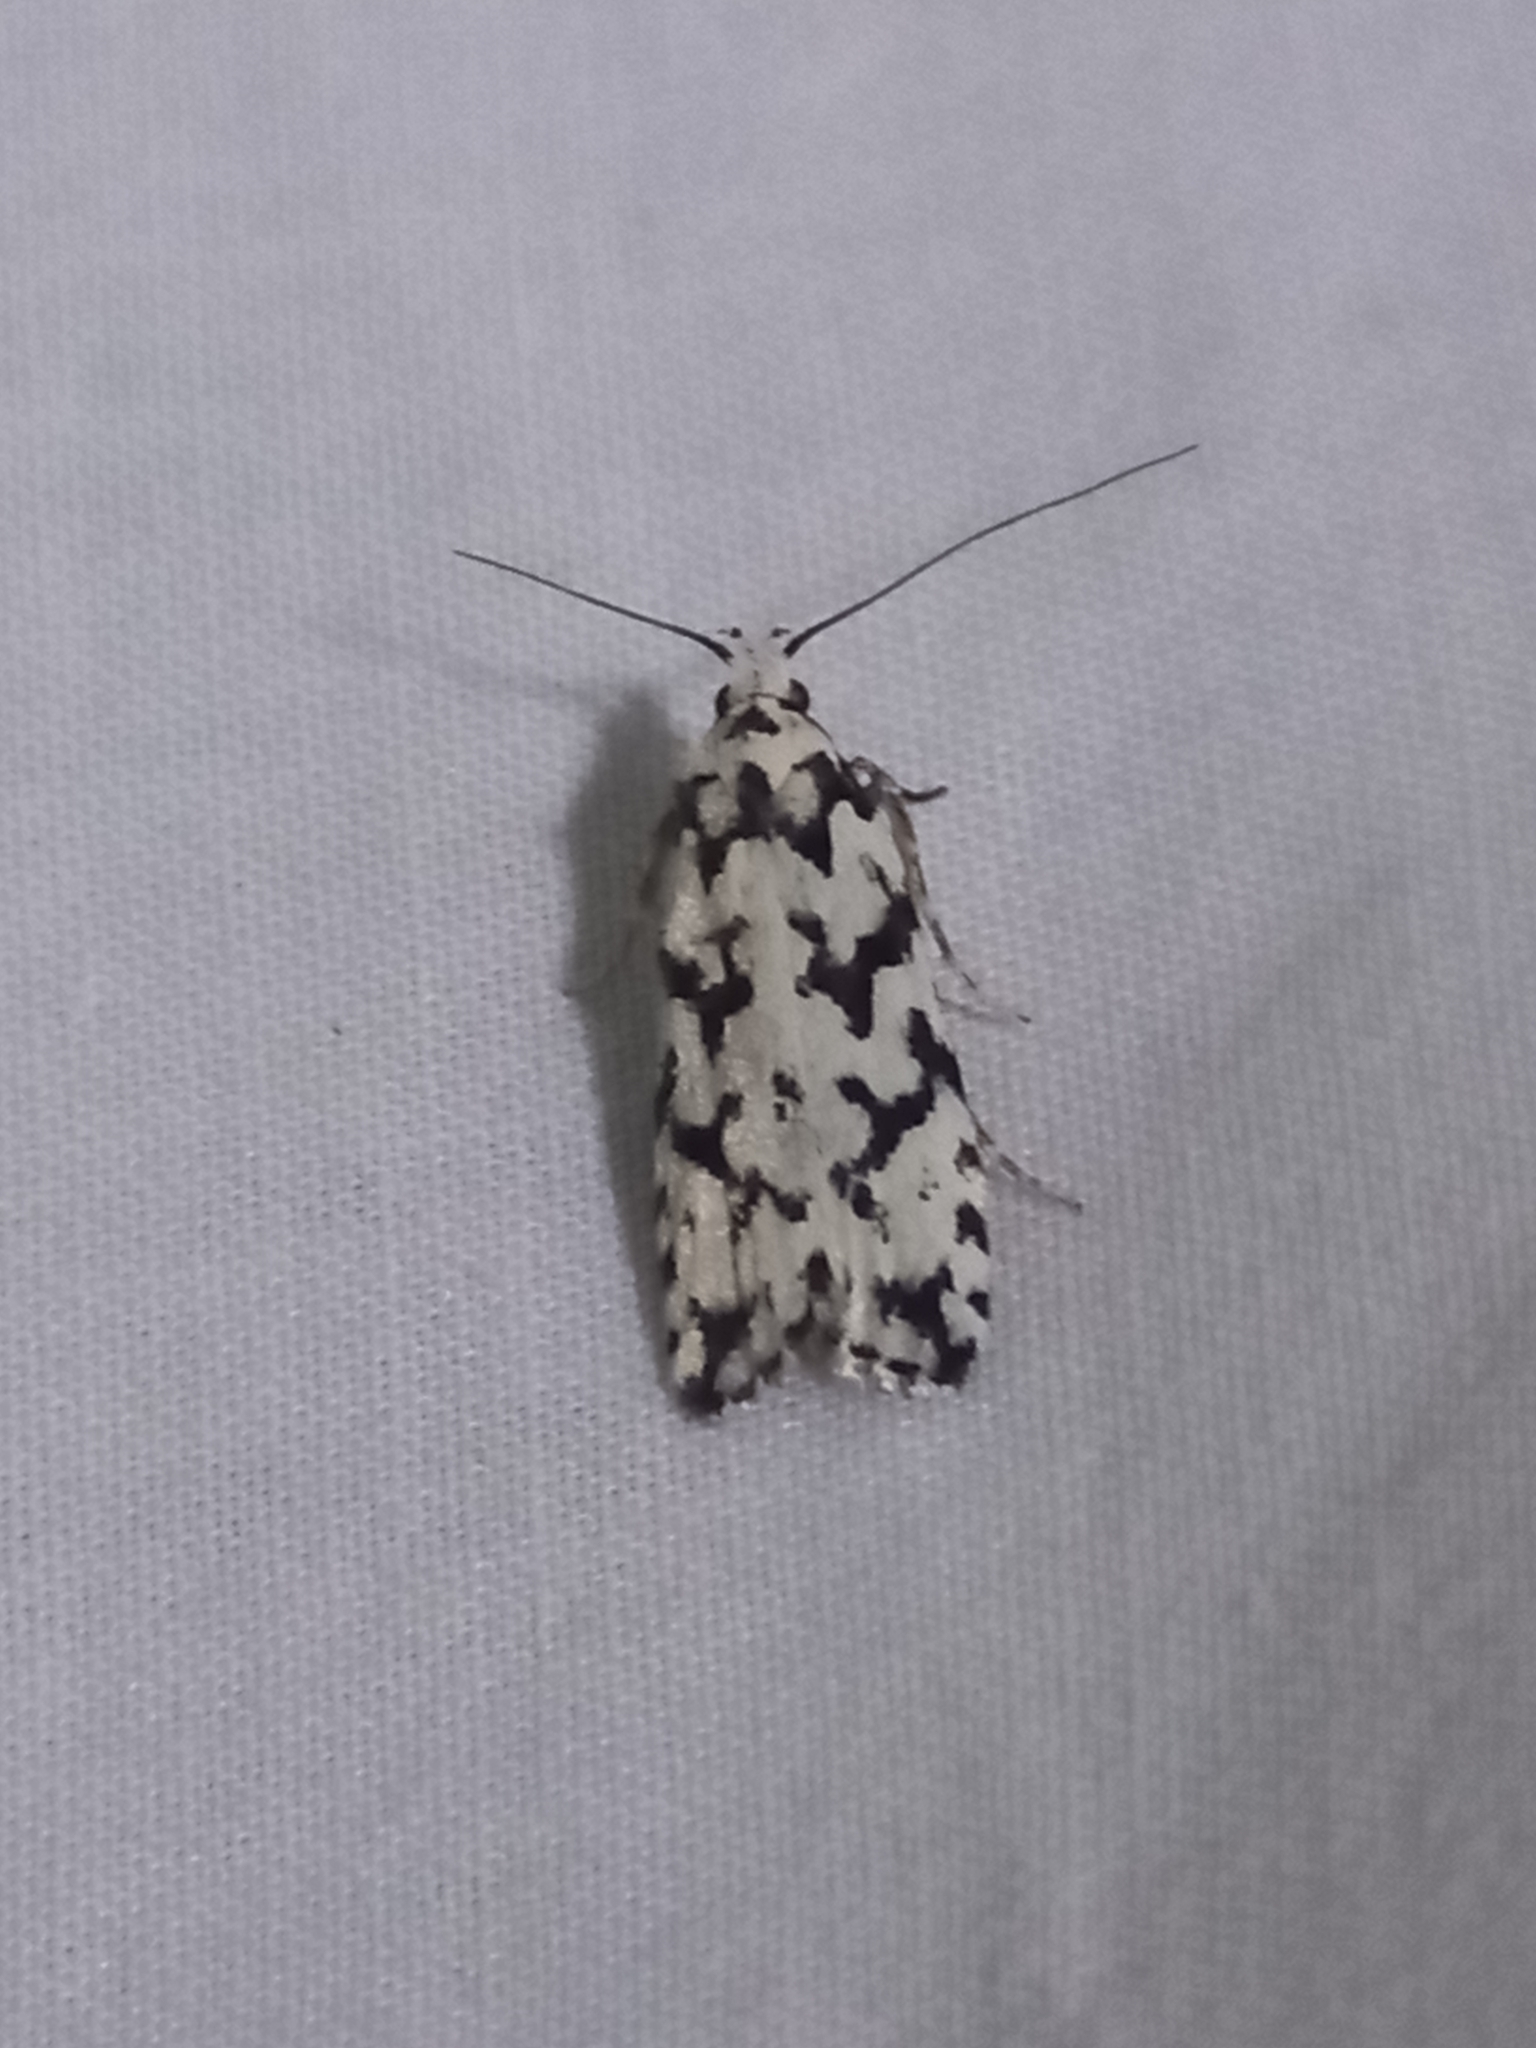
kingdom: Animalia
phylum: Arthropoda
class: Insecta
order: Lepidoptera
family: Oecophoridae
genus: Izatha
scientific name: Izatha katadiktya
